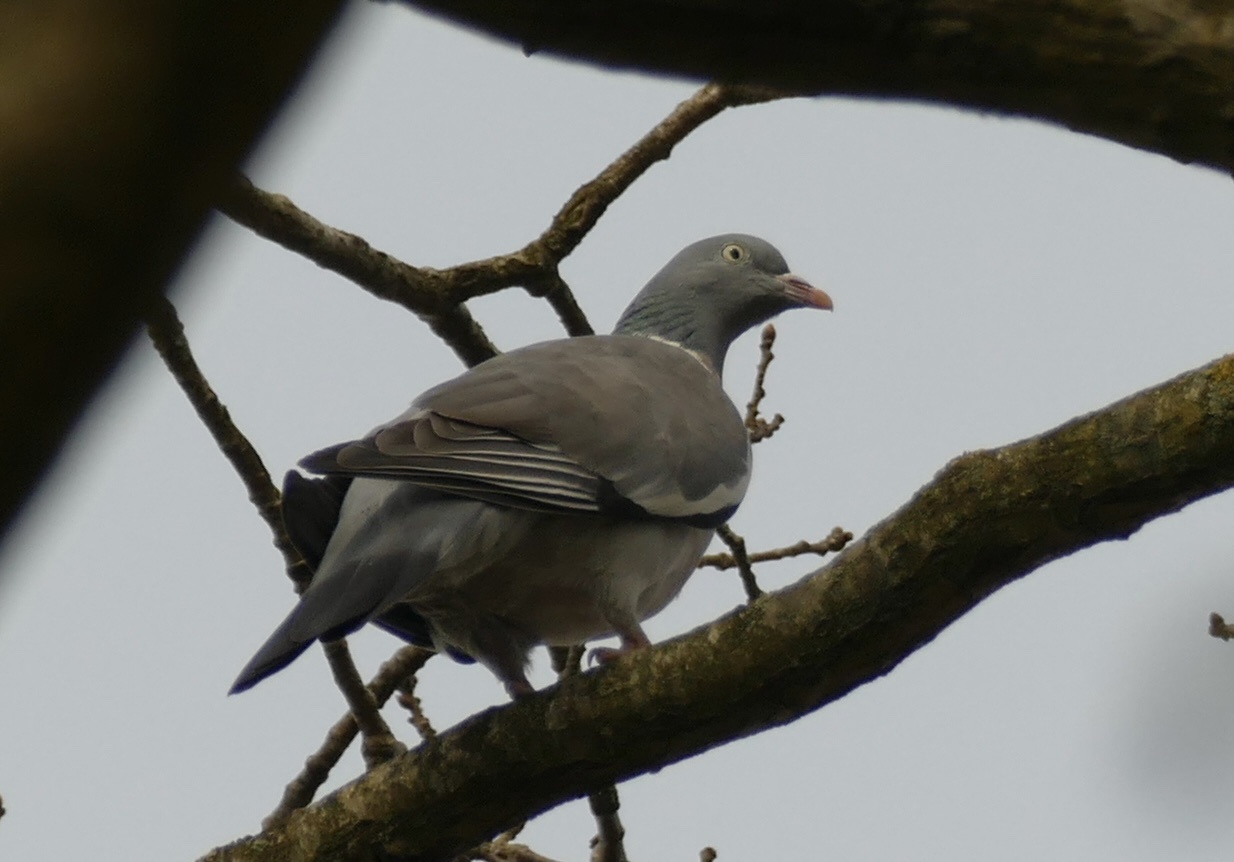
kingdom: Animalia
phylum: Chordata
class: Aves
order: Columbiformes
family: Columbidae
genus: Columba
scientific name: Columba palumbus
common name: Common wood pigeon
